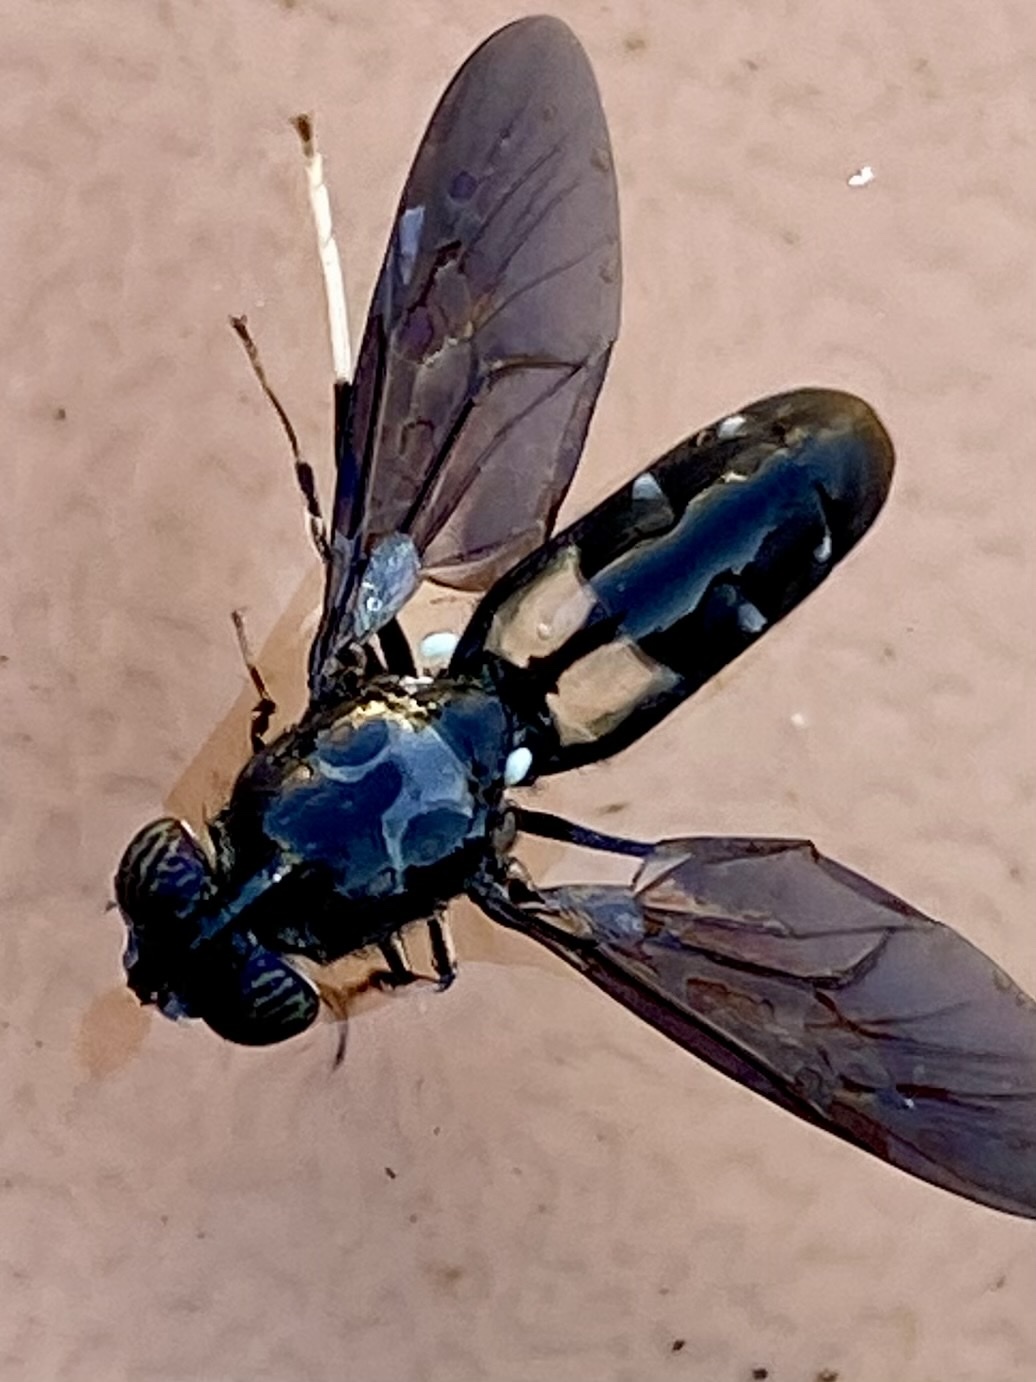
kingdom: Animalia
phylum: Arthropoda
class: Insecta
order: Diptera
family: Stratiomyidae
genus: Hermetia
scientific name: Hermetia illucens
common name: Black soldier fly
